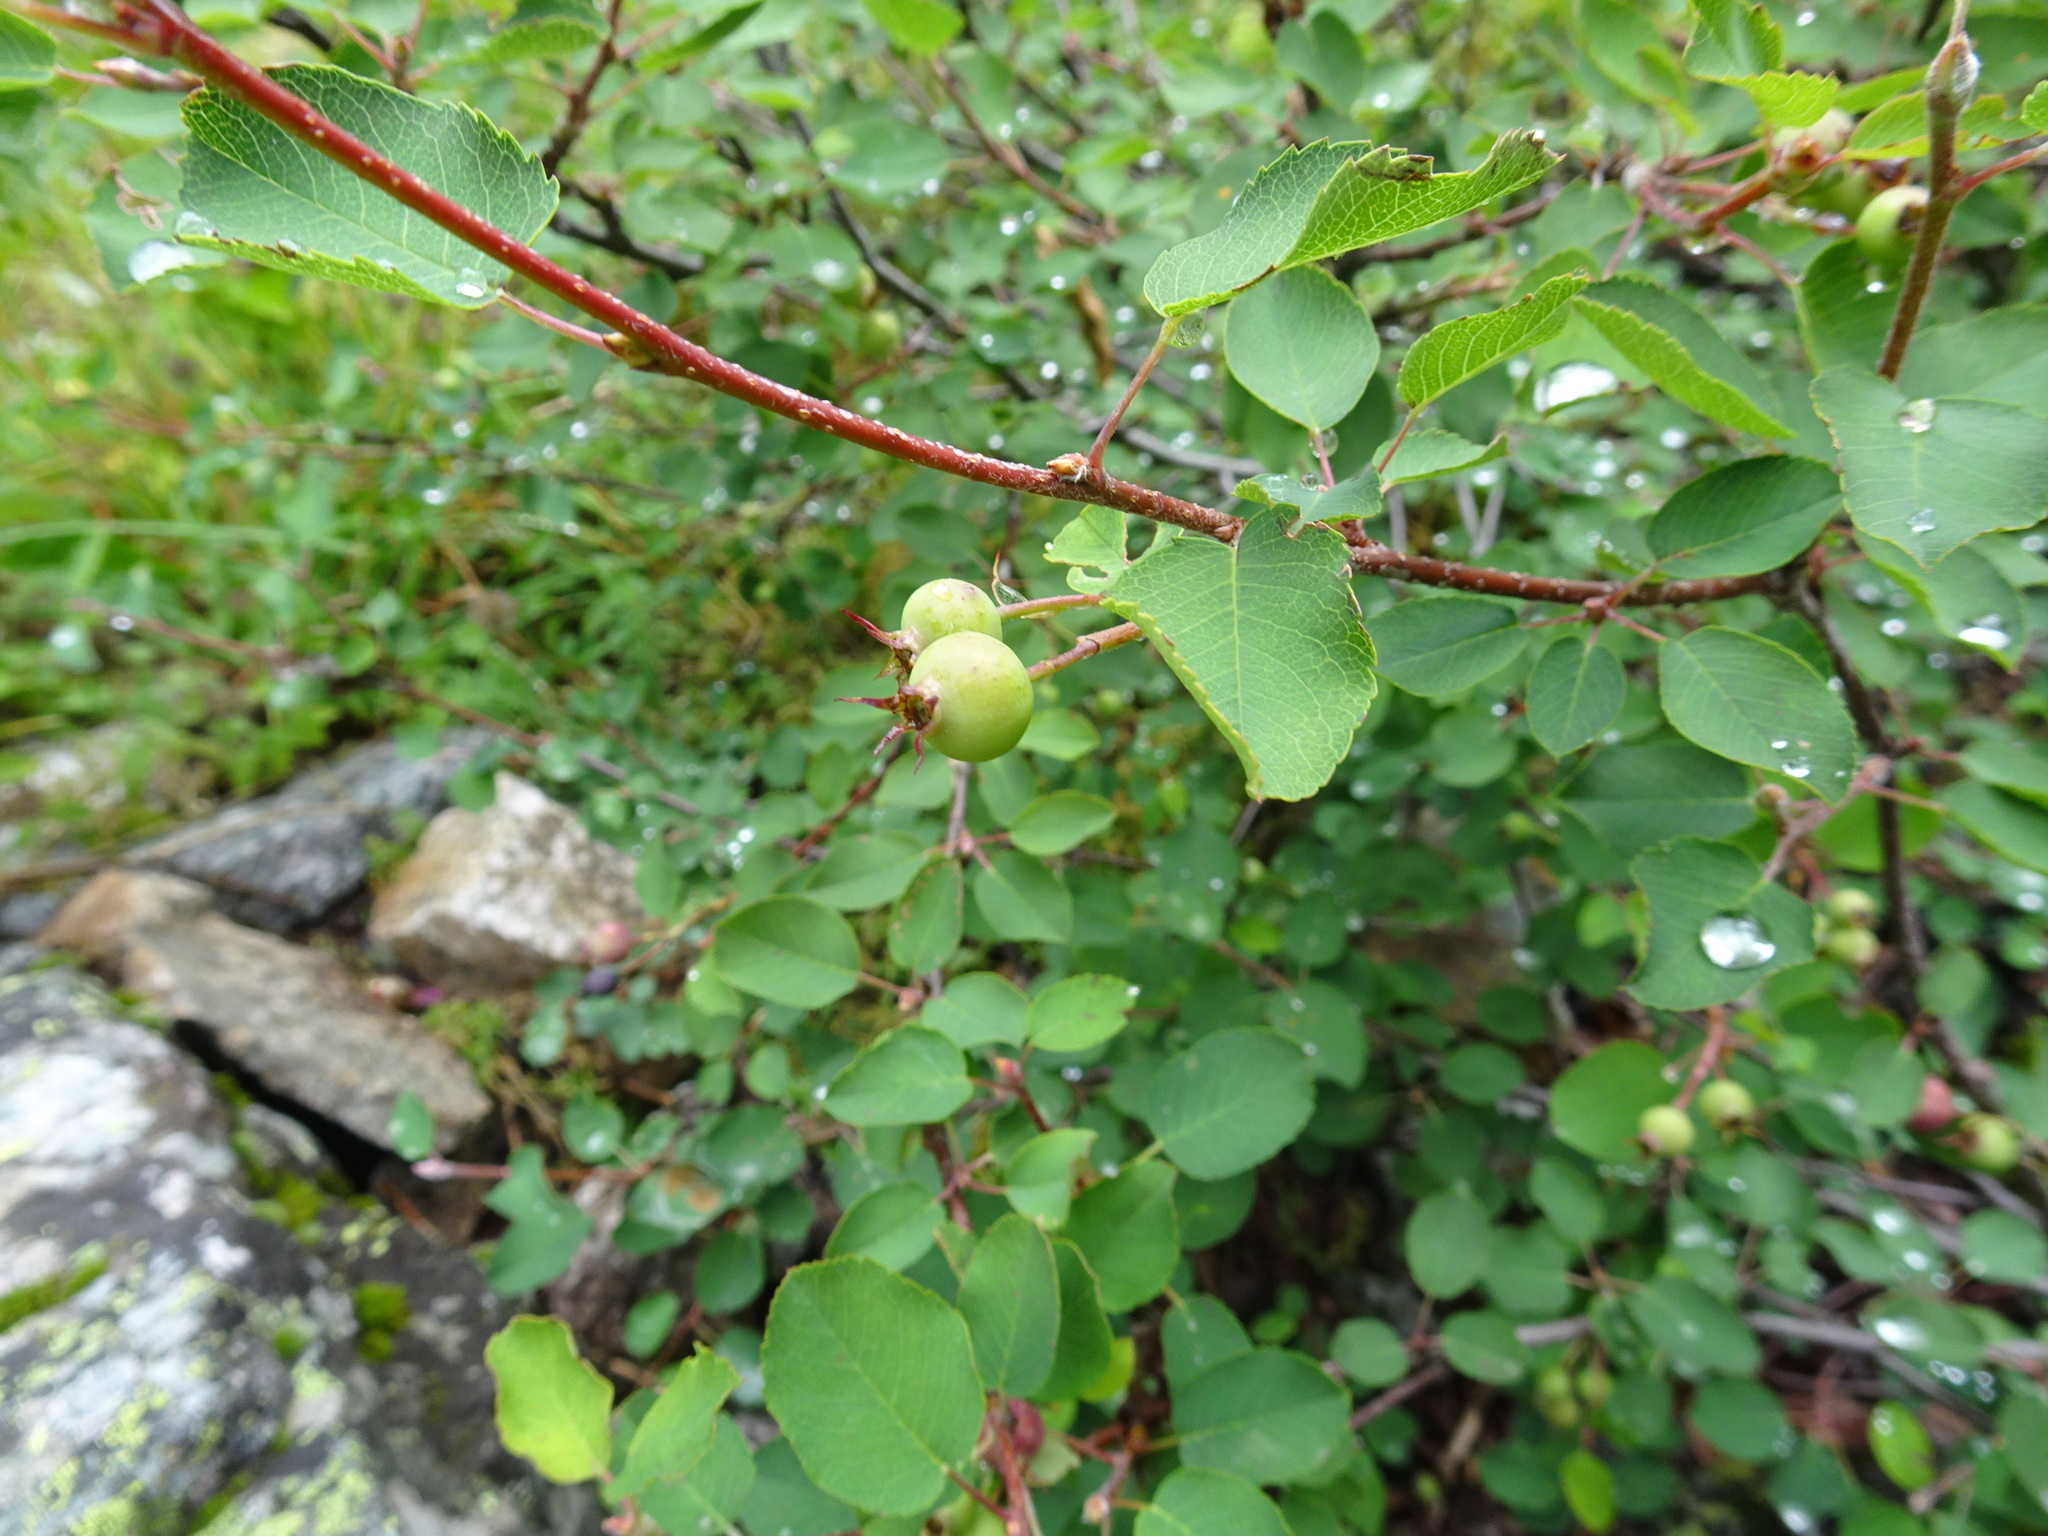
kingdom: Plantae
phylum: Tracheophyta
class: Magnoliopsida
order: Rosales
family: Rosaceae
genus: Amelanchier
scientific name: Amelanchier ovalis
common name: Serviceberry
